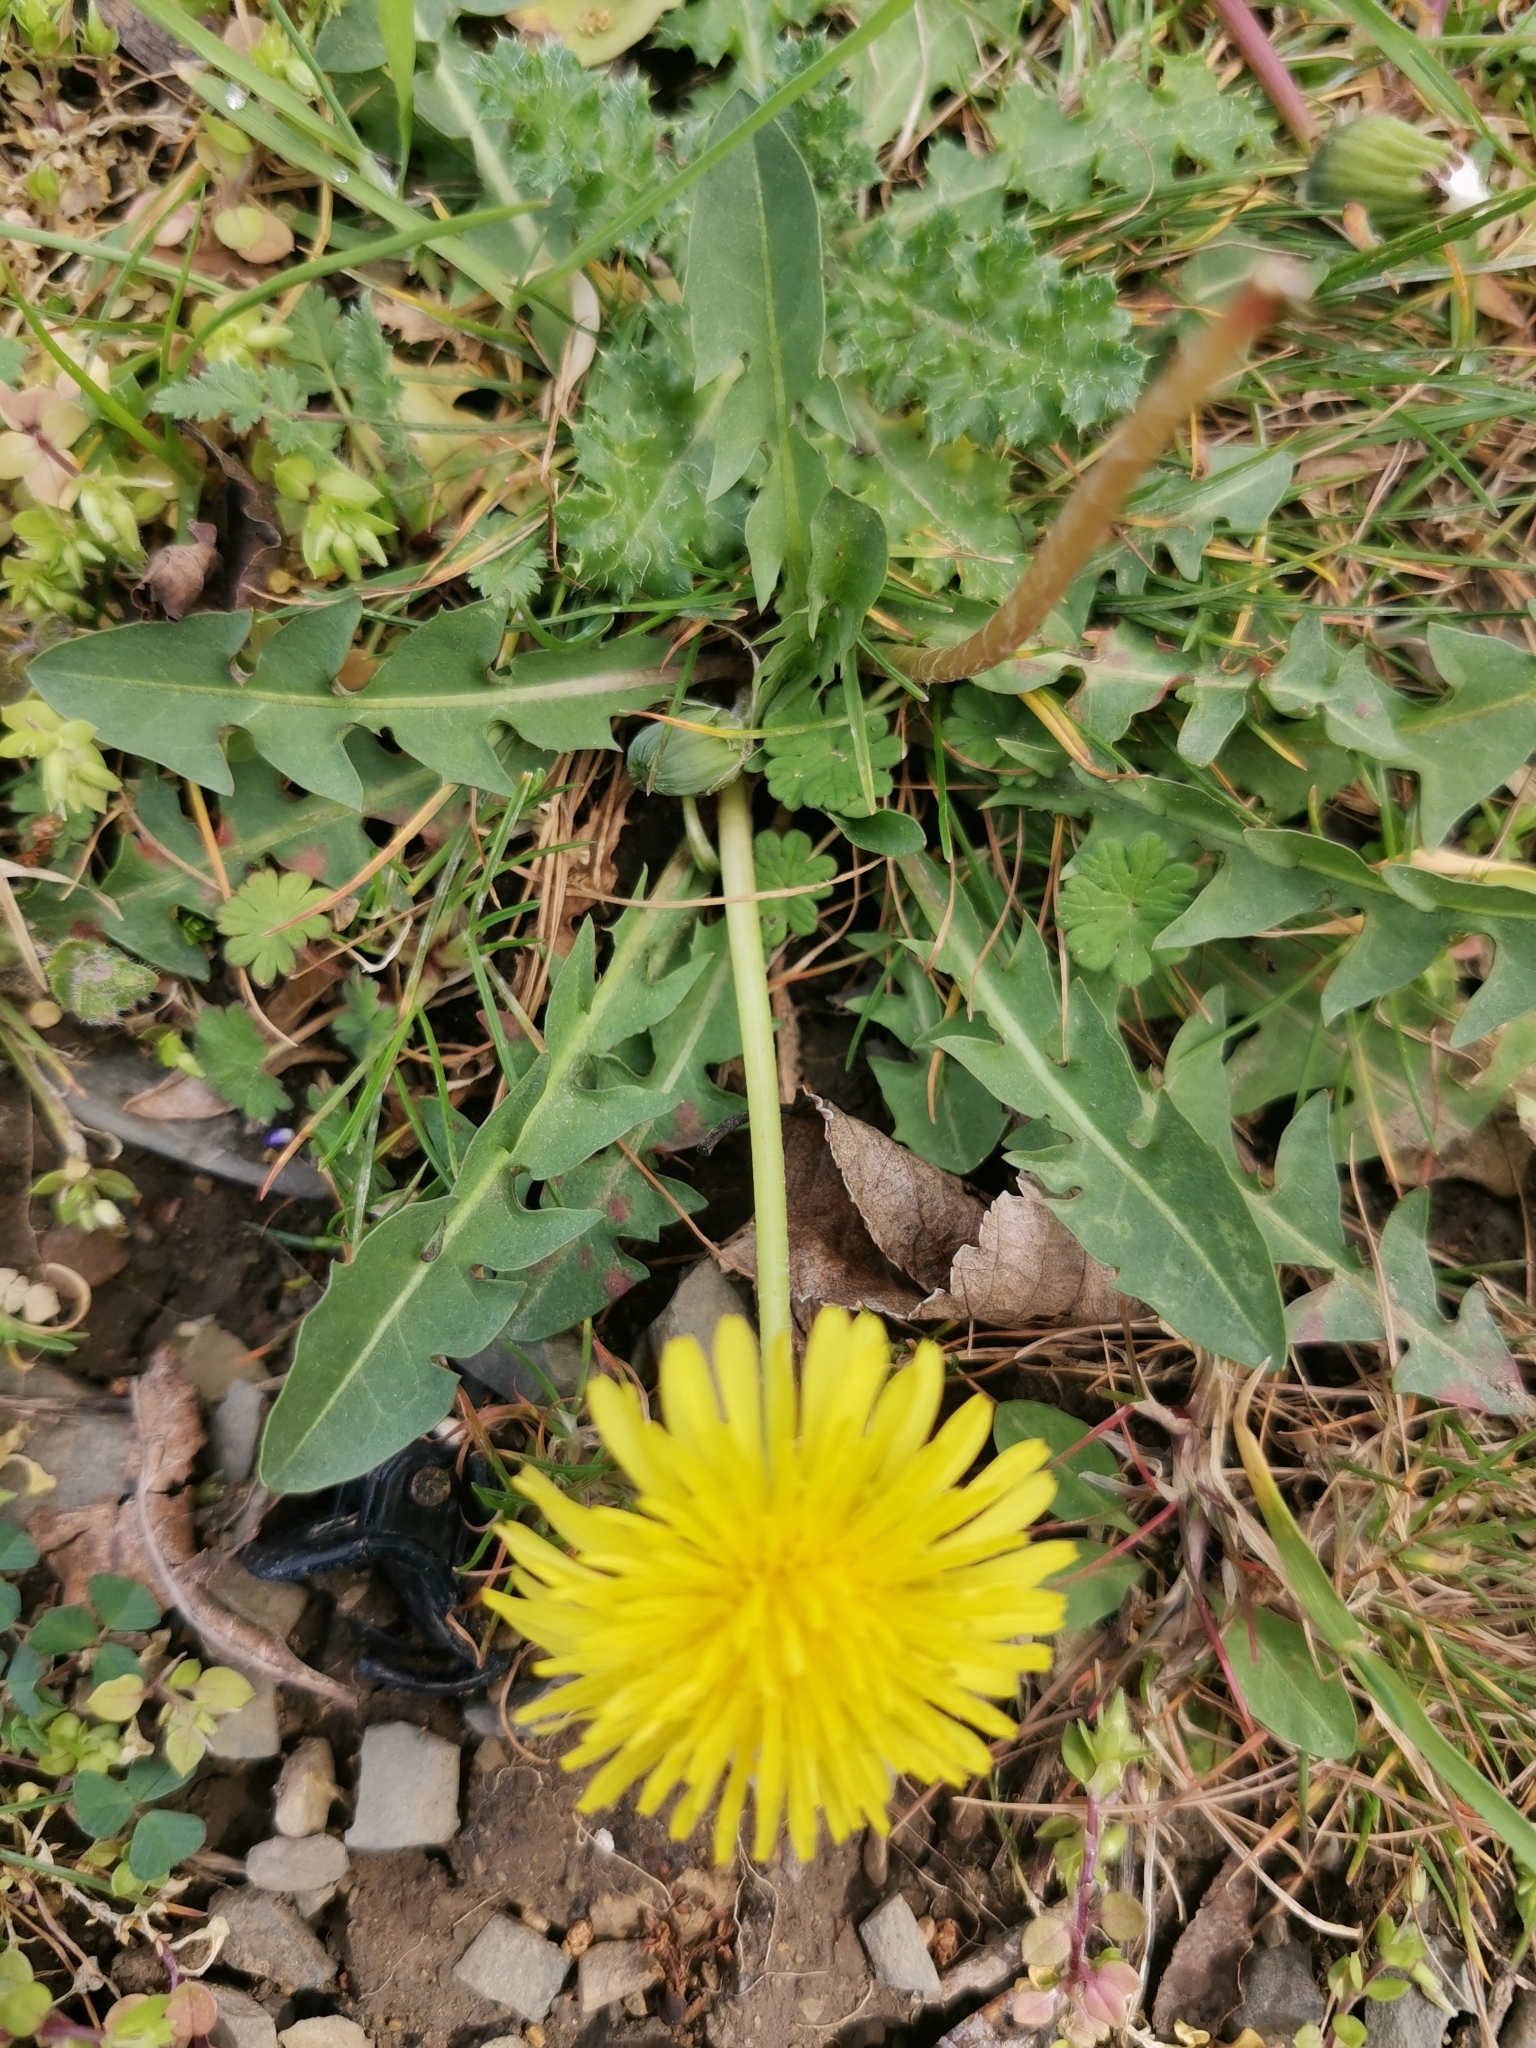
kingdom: Plantae
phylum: Tracheophyta
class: Magnoliopsida
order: Asterales
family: Asteraceae
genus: Taraxacum
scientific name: Taraxacum officinale
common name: Common dandelion
